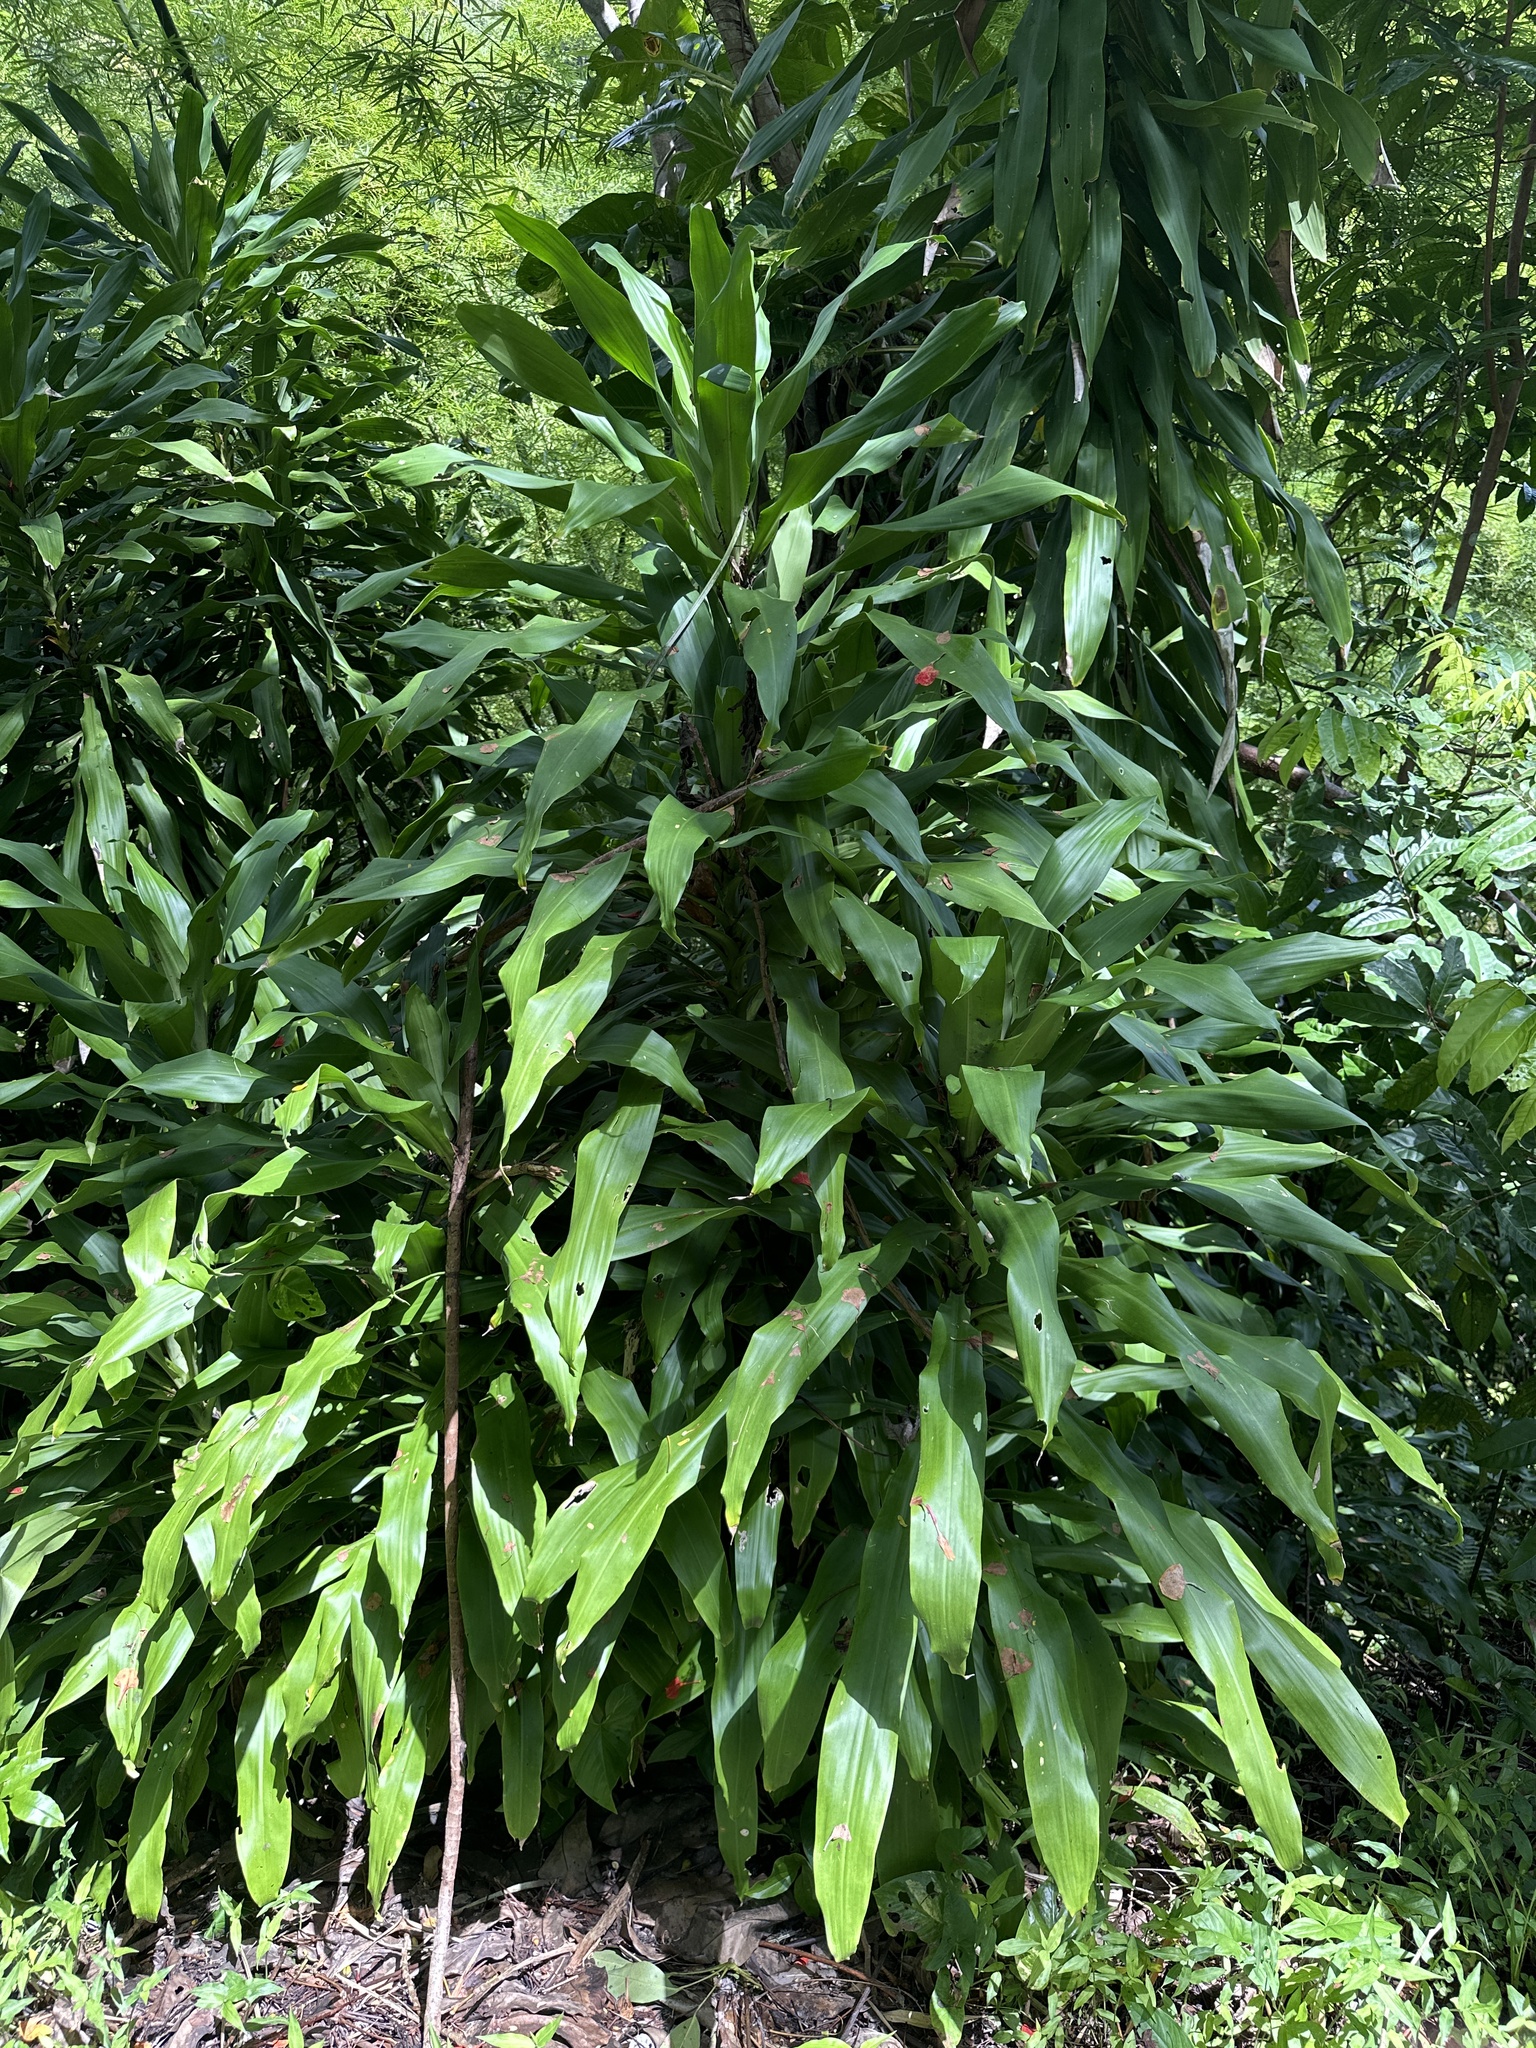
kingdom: Plantae
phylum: Tracheophyta
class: Liliopsida
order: Asparagales
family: Asparagaceae
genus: Dracaena
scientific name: Dracaena fragrans
